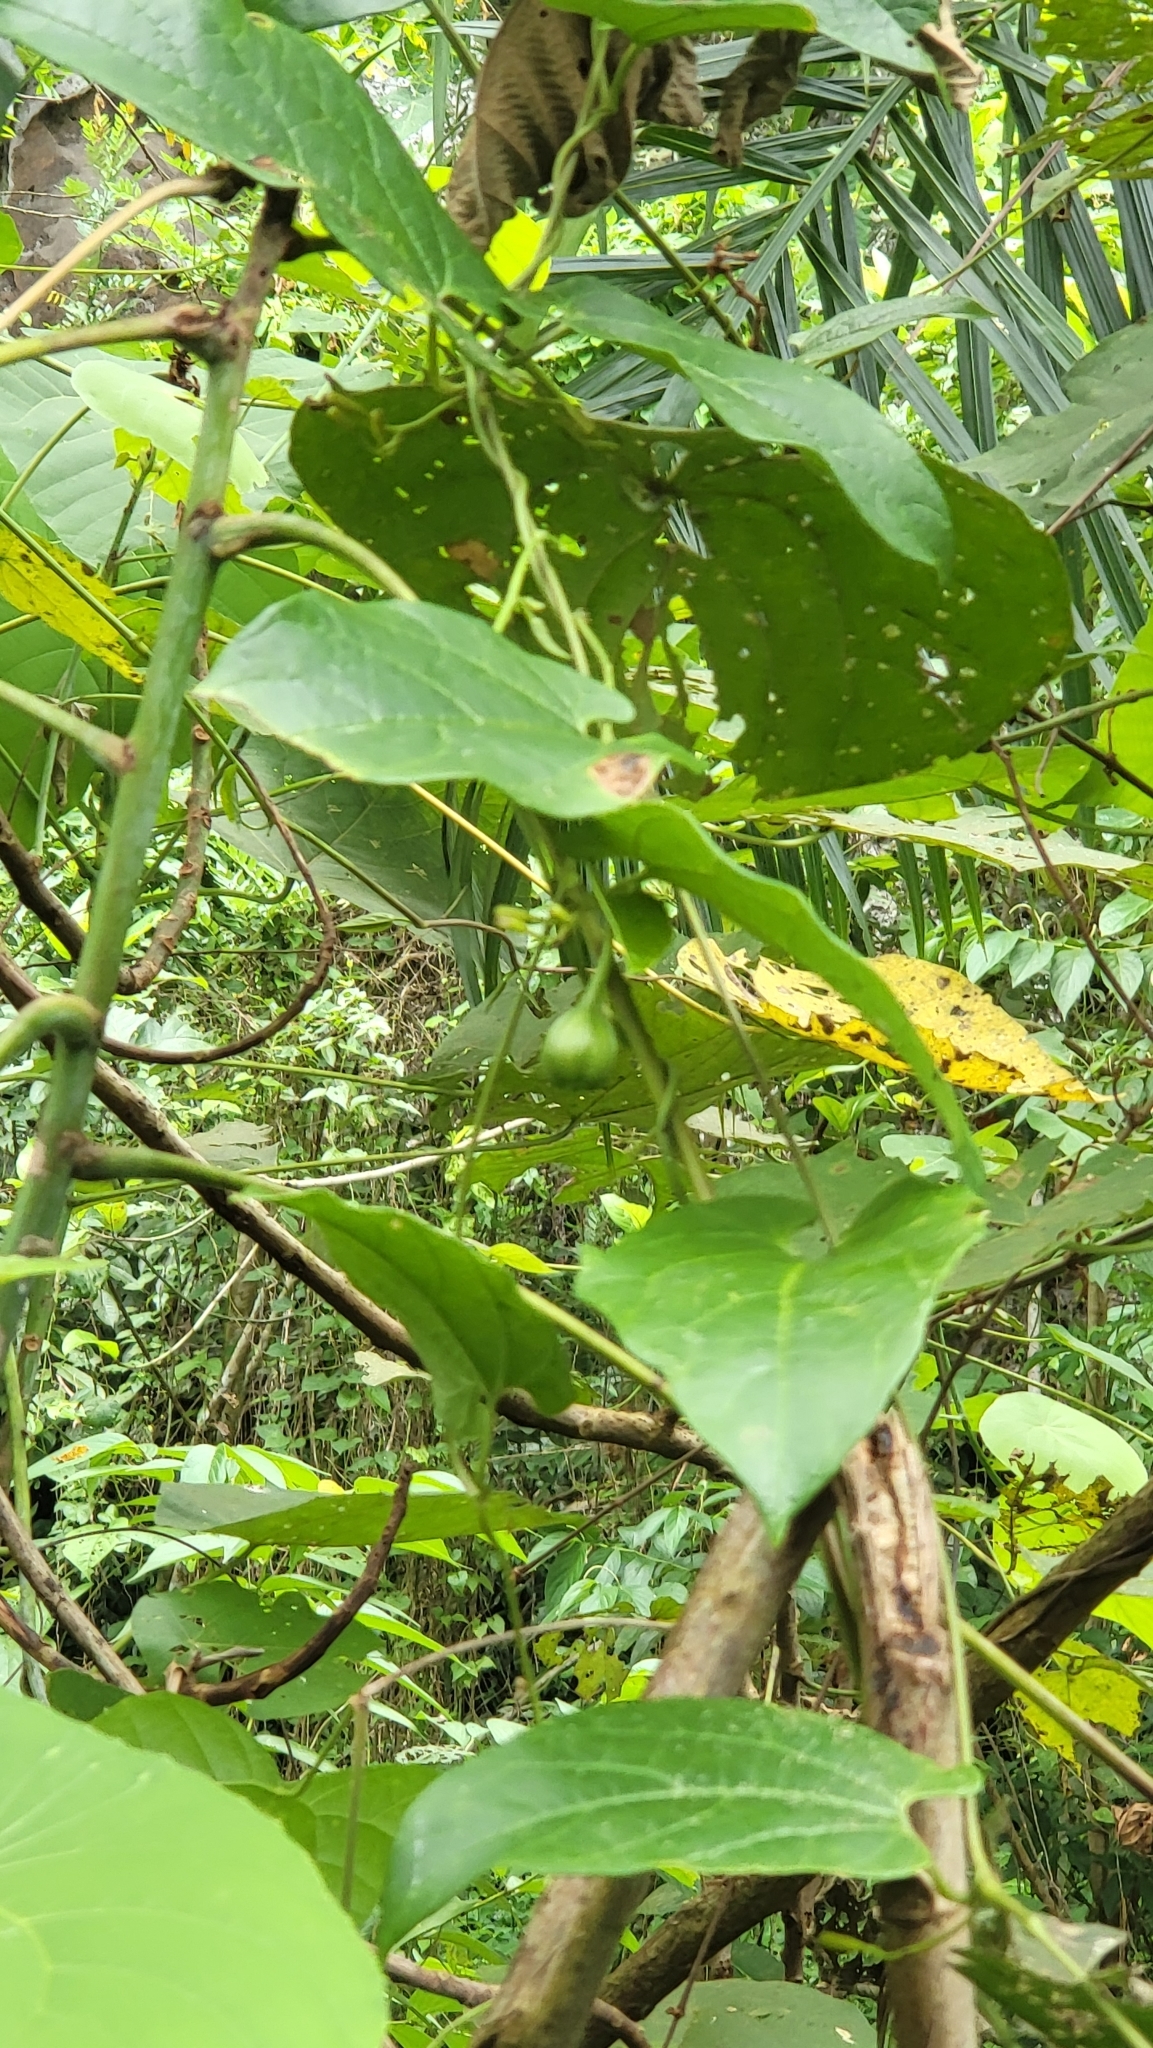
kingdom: Plantae
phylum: Tracheophyta
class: Magnoliopsida
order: Piperales
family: Aristolochiaceae
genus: Aristolochia
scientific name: Aristolochia acuminata
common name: Indian birthwort
